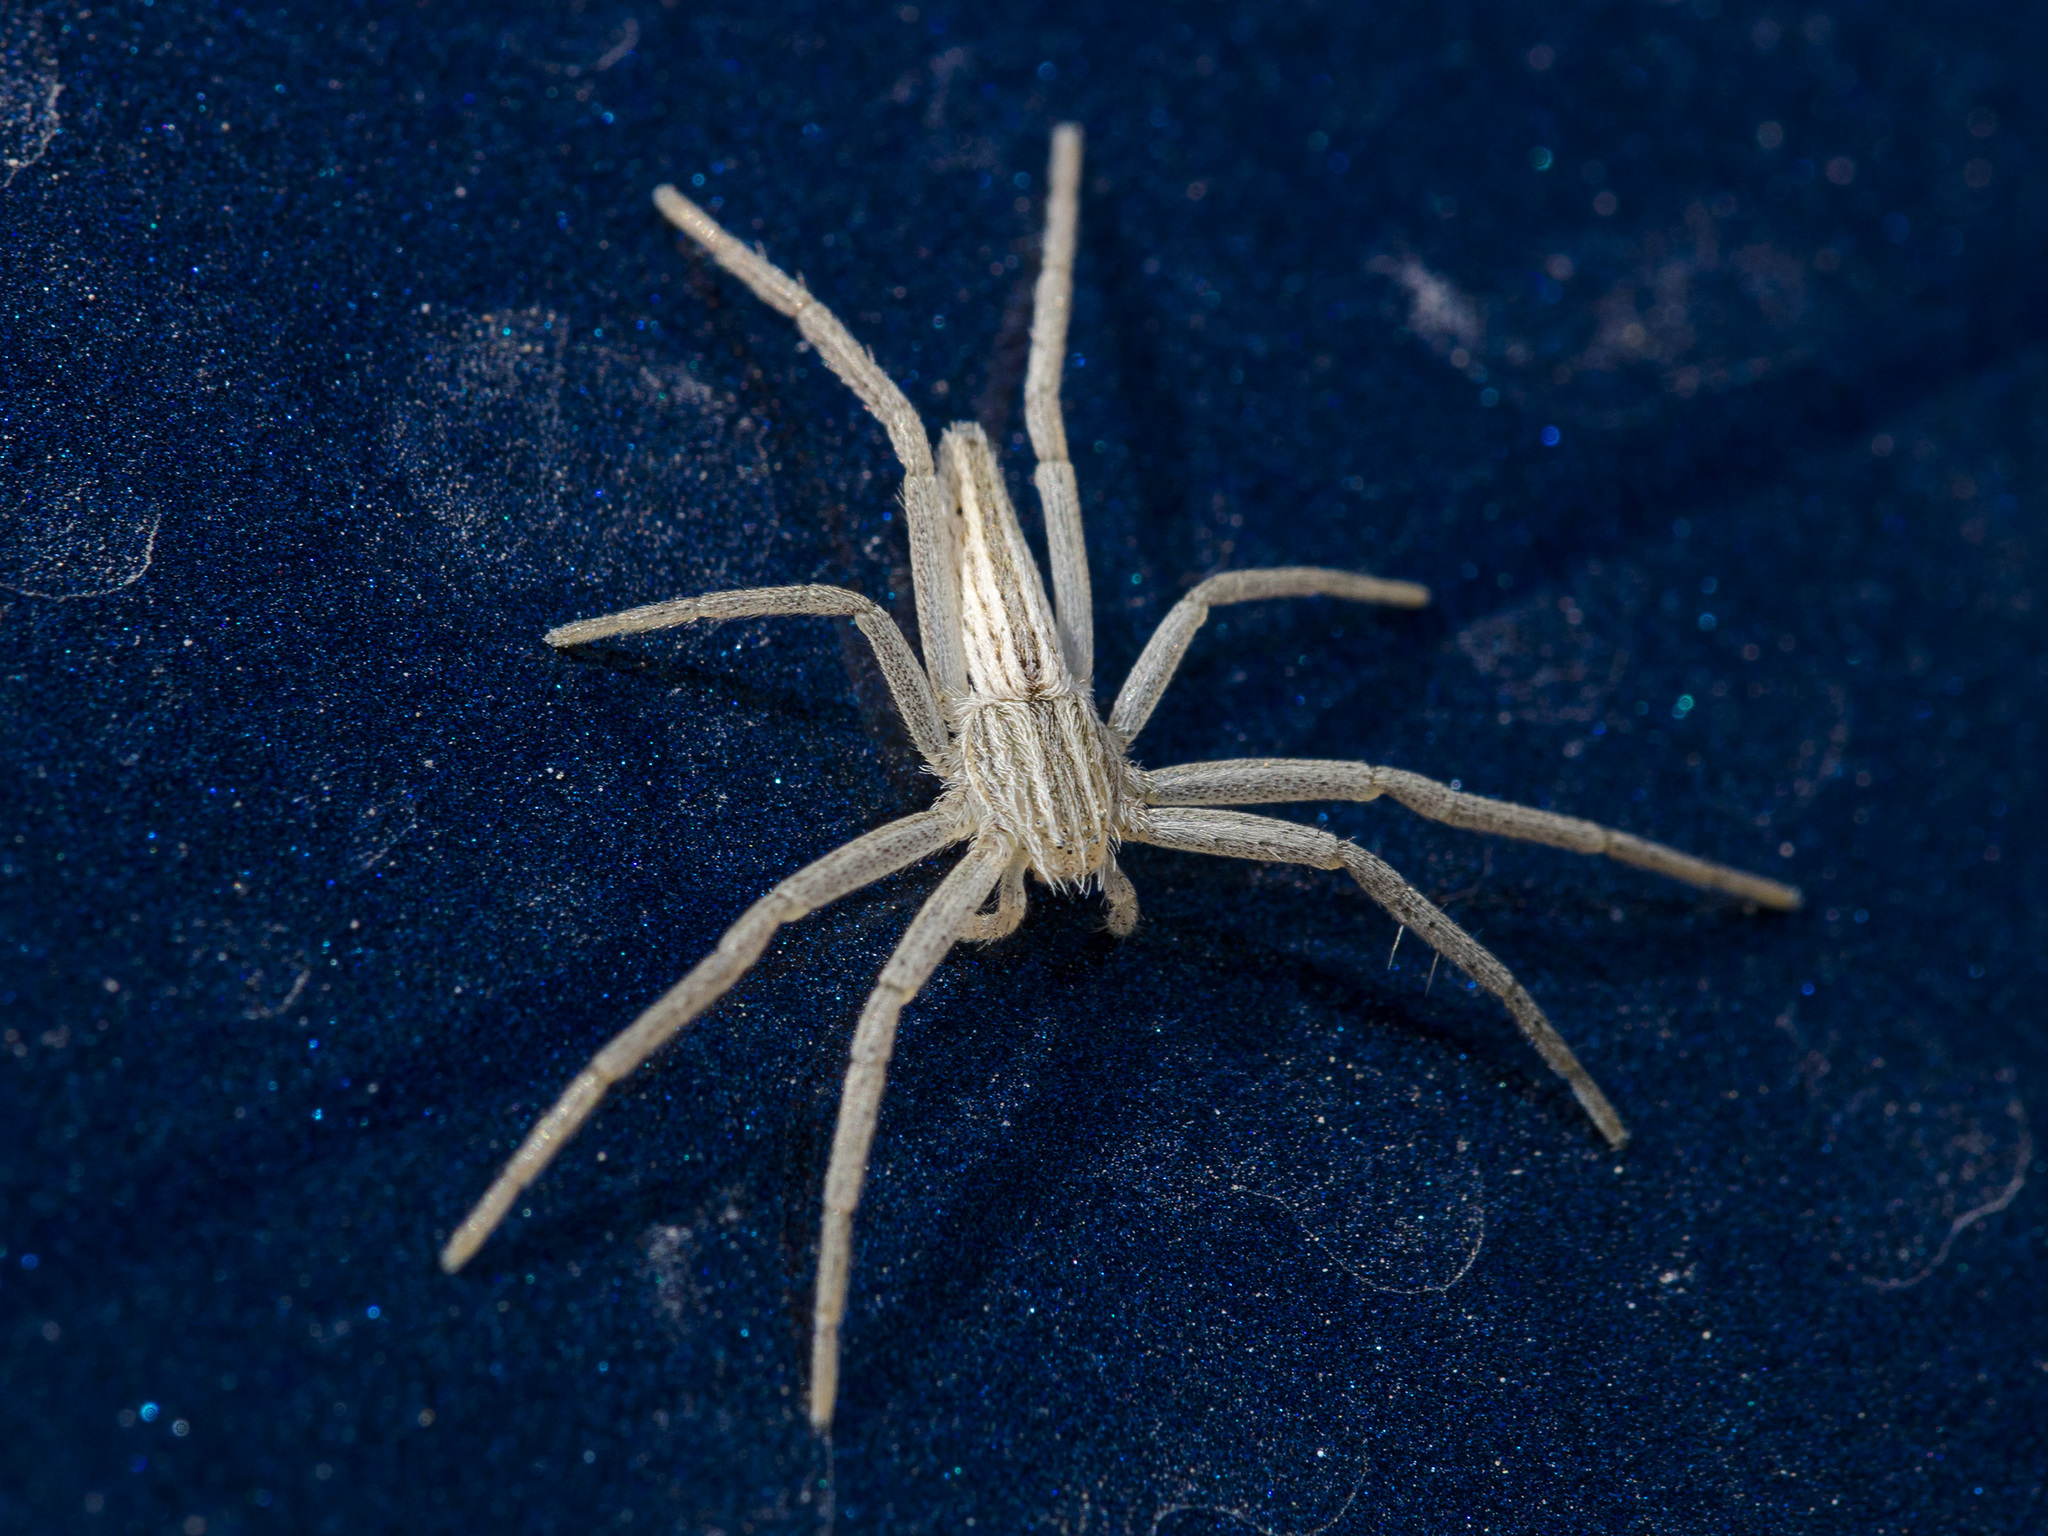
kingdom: Animalia
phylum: Arthropoda
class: Arachnida
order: Araneae
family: Philodromidae
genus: Tibellus
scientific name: Tibellus oblongus
